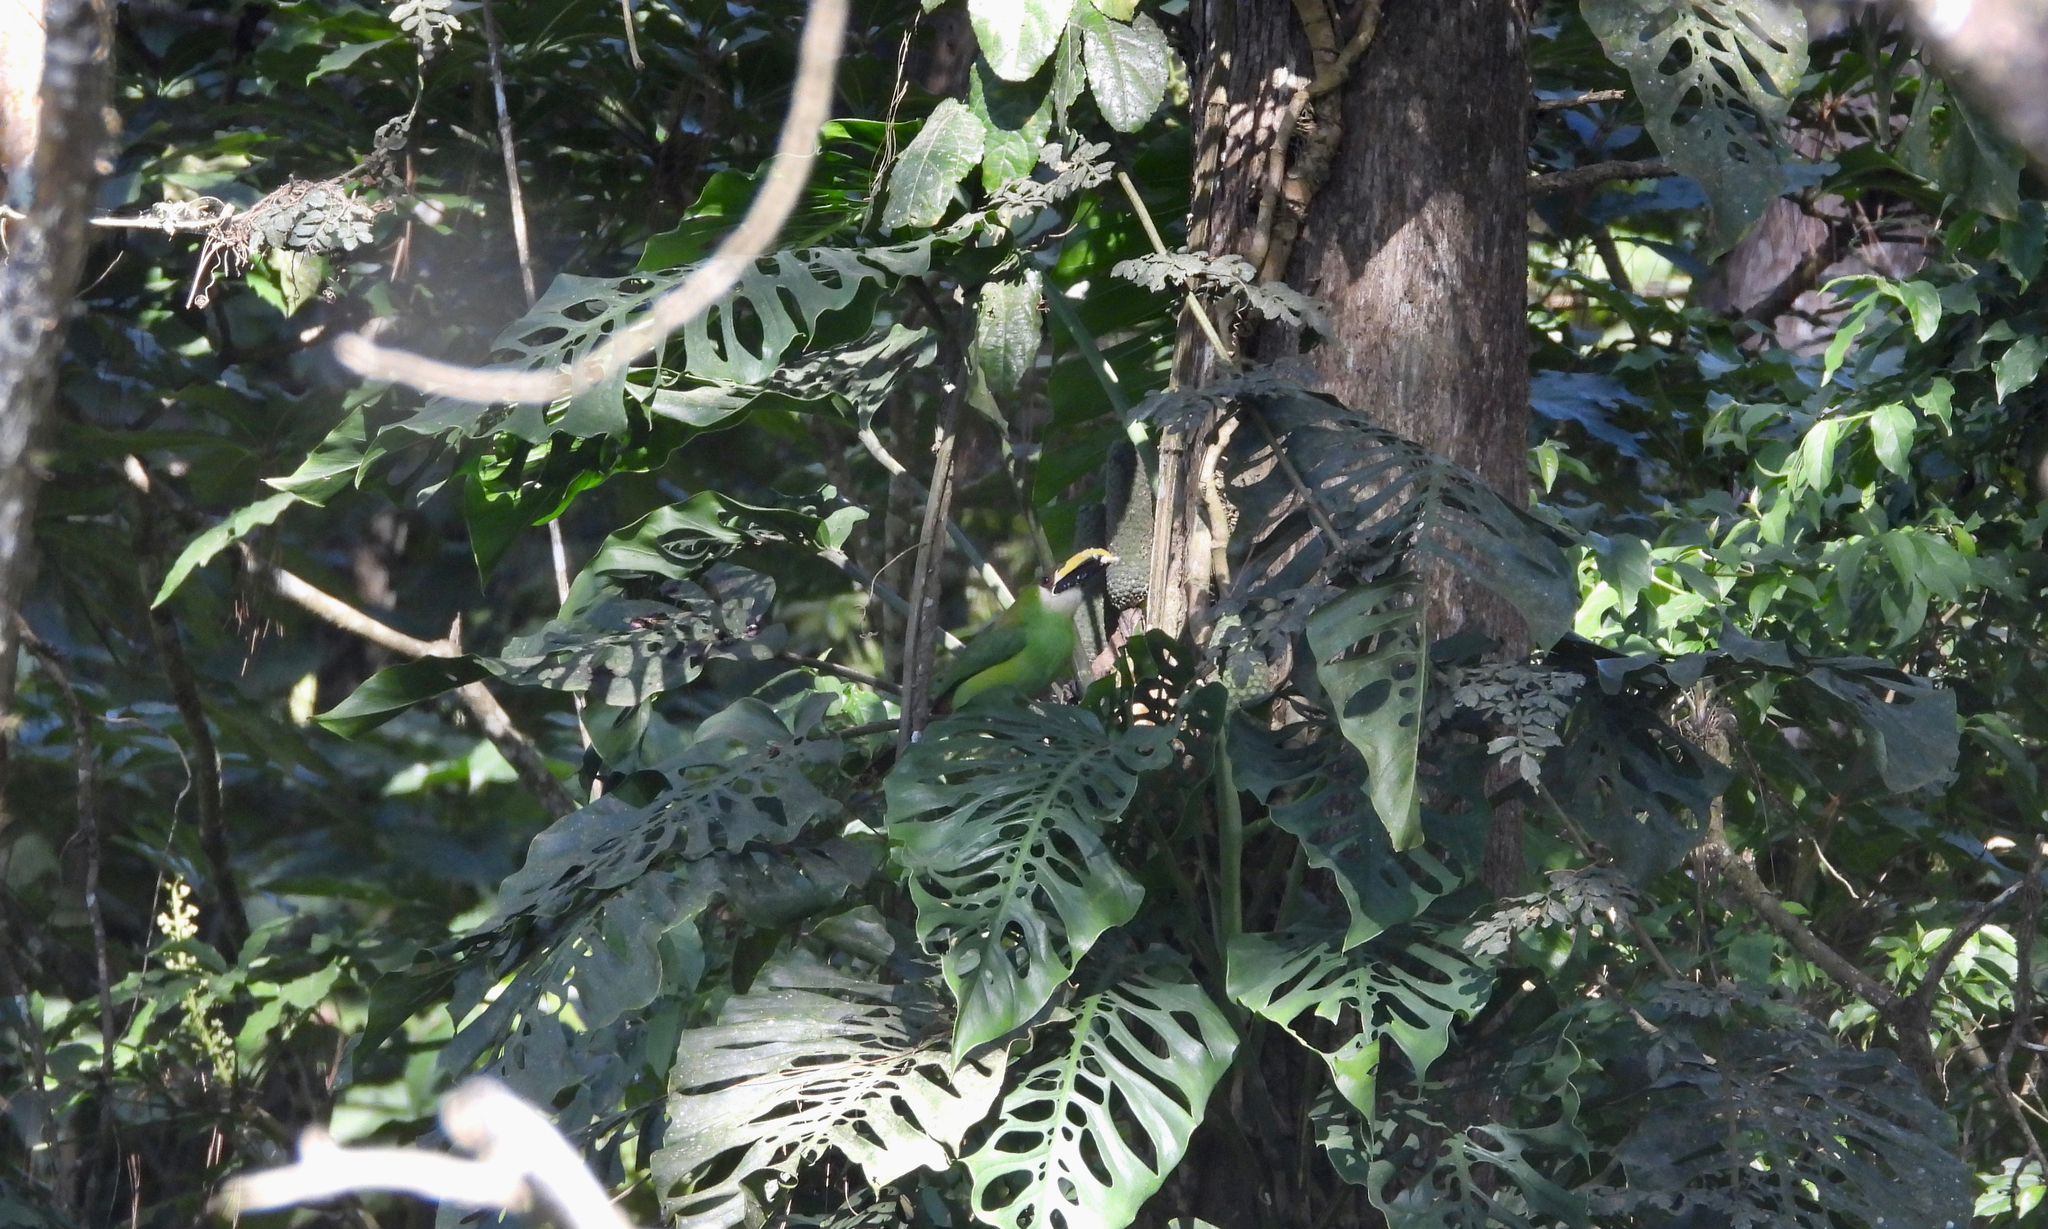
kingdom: Animalia
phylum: Chordata
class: Aves
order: Piciformes
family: Ramphastidae
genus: Aulacorhynchus
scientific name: Aulacorhynchus prasinus
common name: Emerald toucanet
